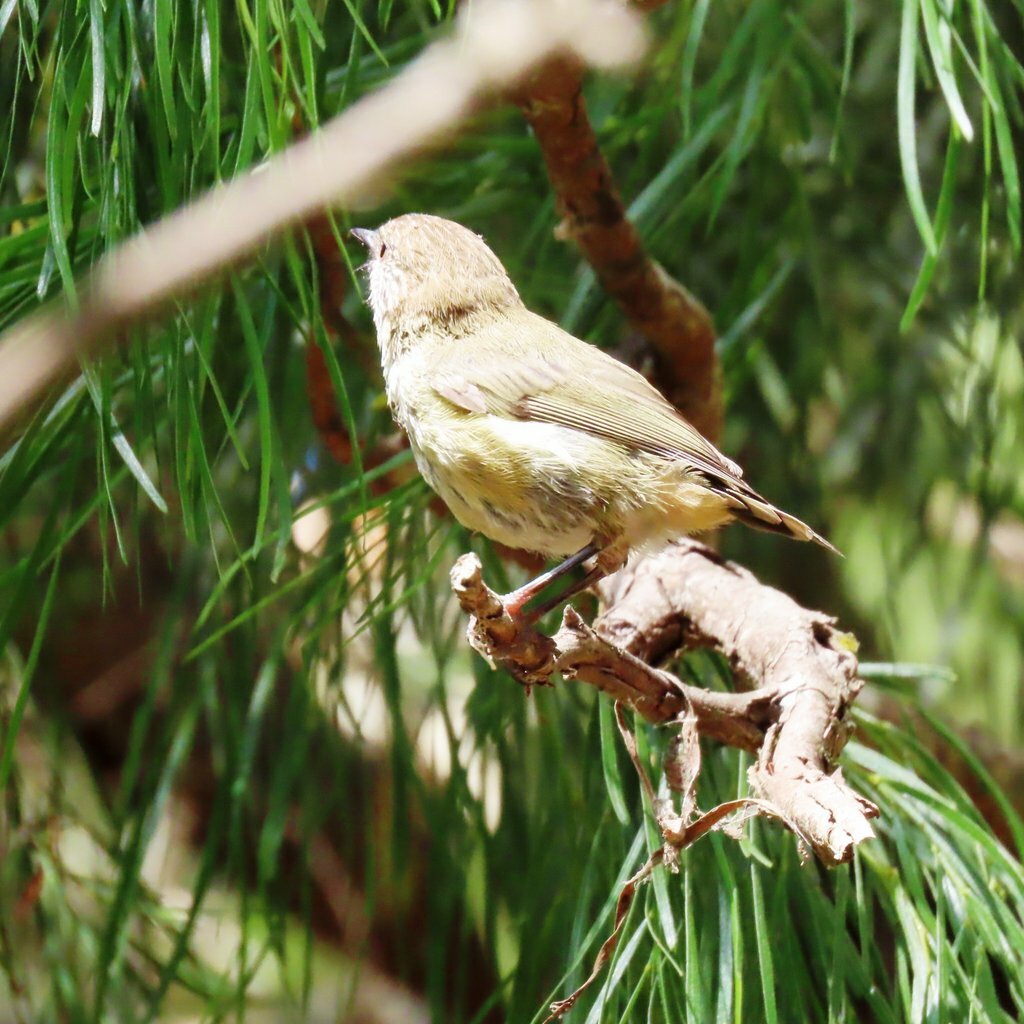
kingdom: Animalia
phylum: Chordata
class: Aves
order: Passeriformes
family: Acanthizidae
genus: Acanthiza
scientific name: Acanthiza nana
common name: Yellow thornbill
